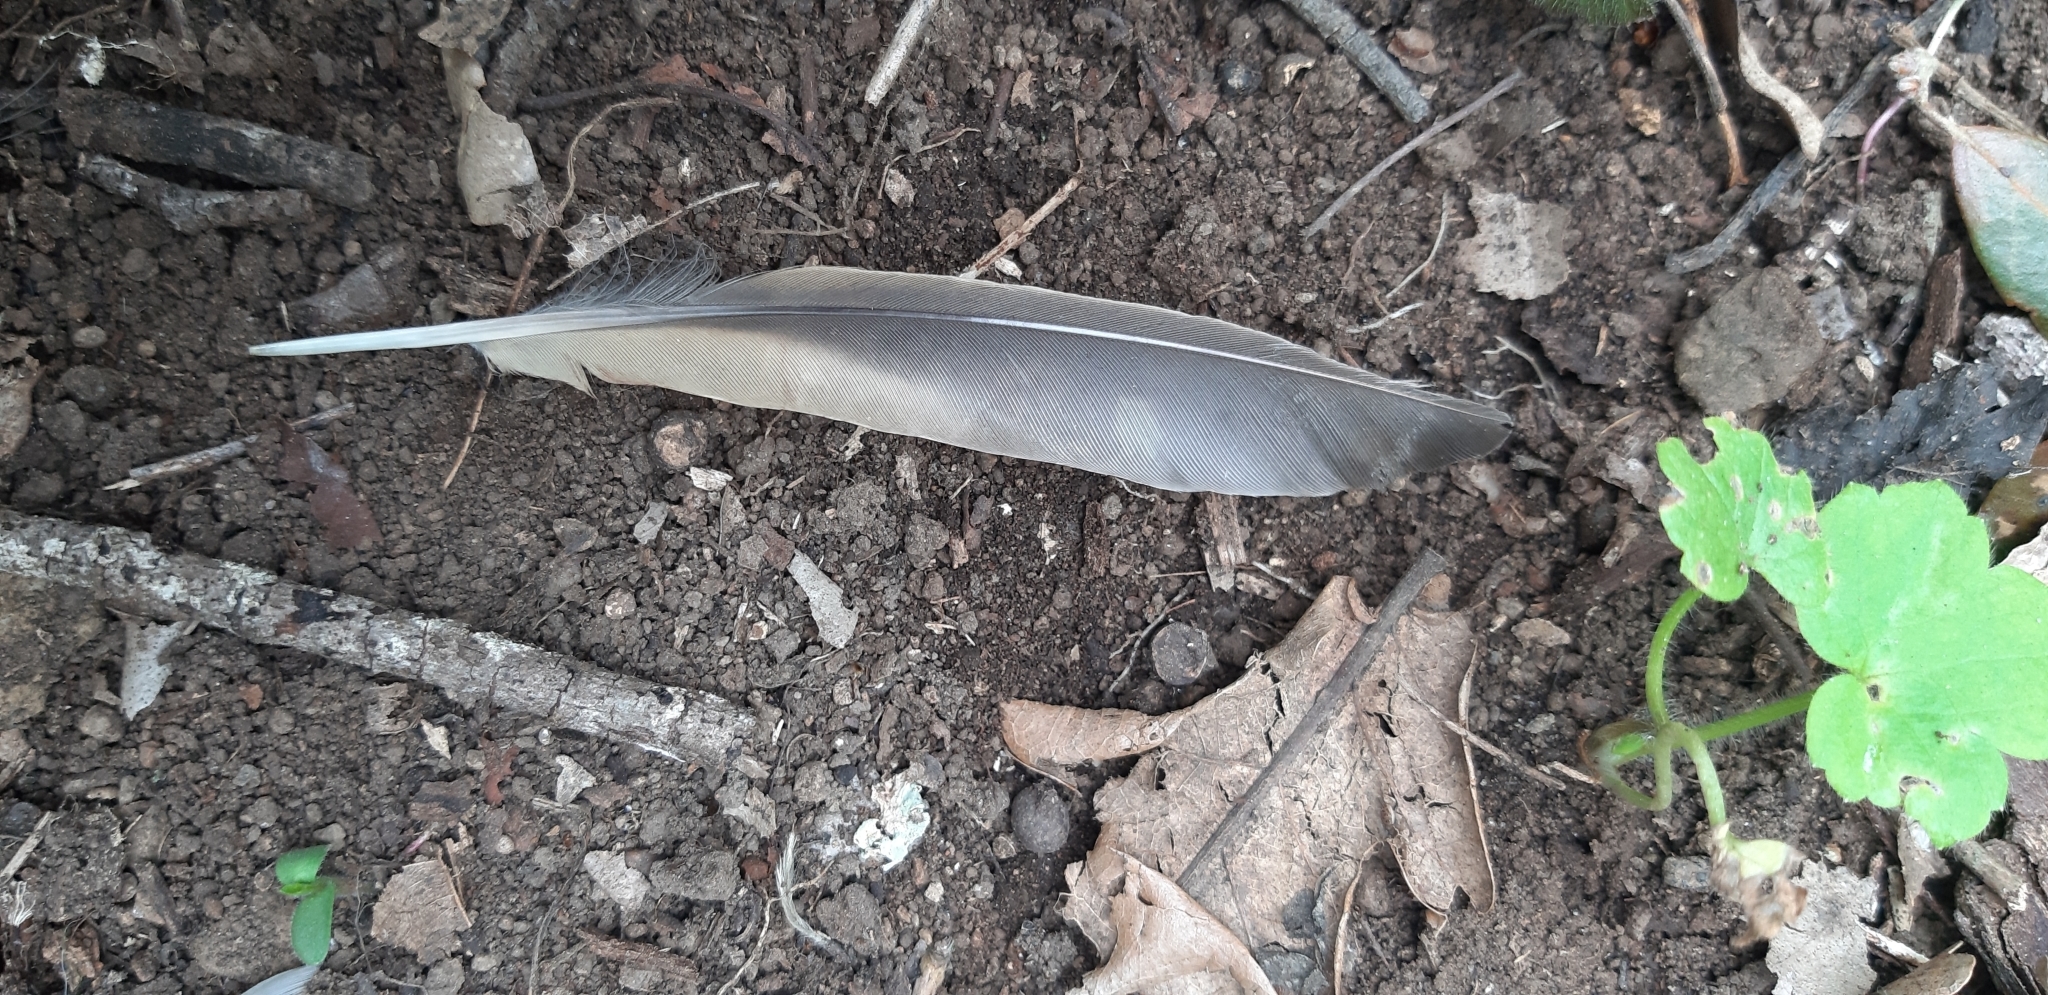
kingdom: Animalia
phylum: Chordata
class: Aves
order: Passeriformes
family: Turdidae
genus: Turdus
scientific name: Turdus philomelos
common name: Song thrush
